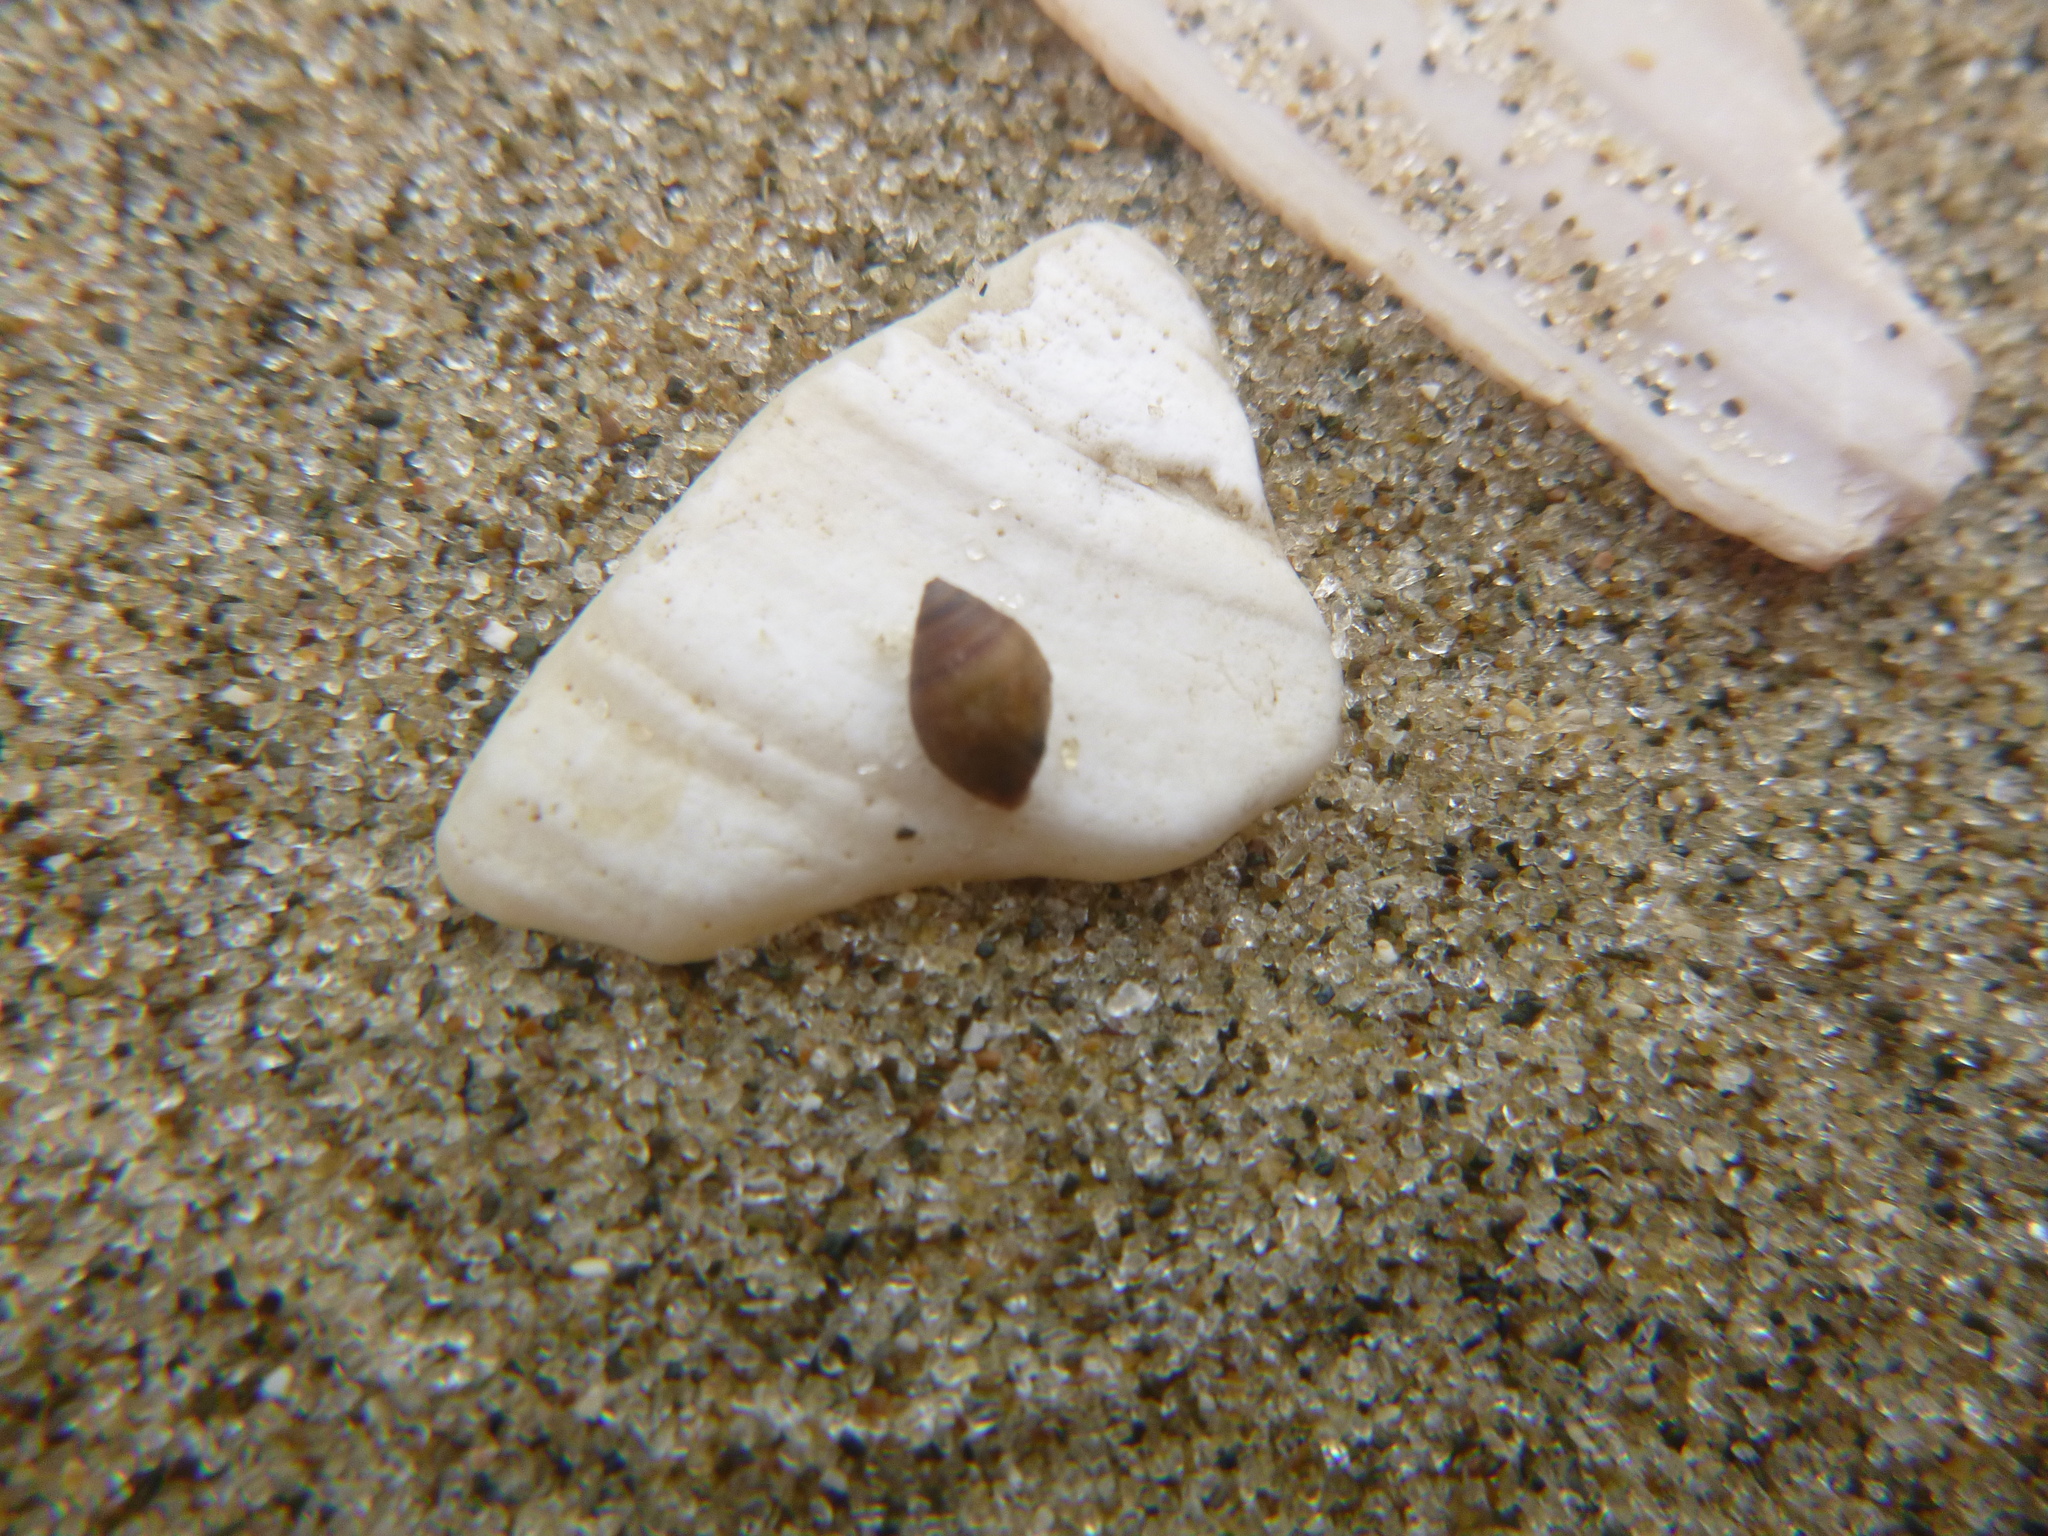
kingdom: Animalia
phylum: Mollusca
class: Gastropoda
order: Ellobiida
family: Ellobiidae
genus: Pleuroloba
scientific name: Pleuroloba costellaris
